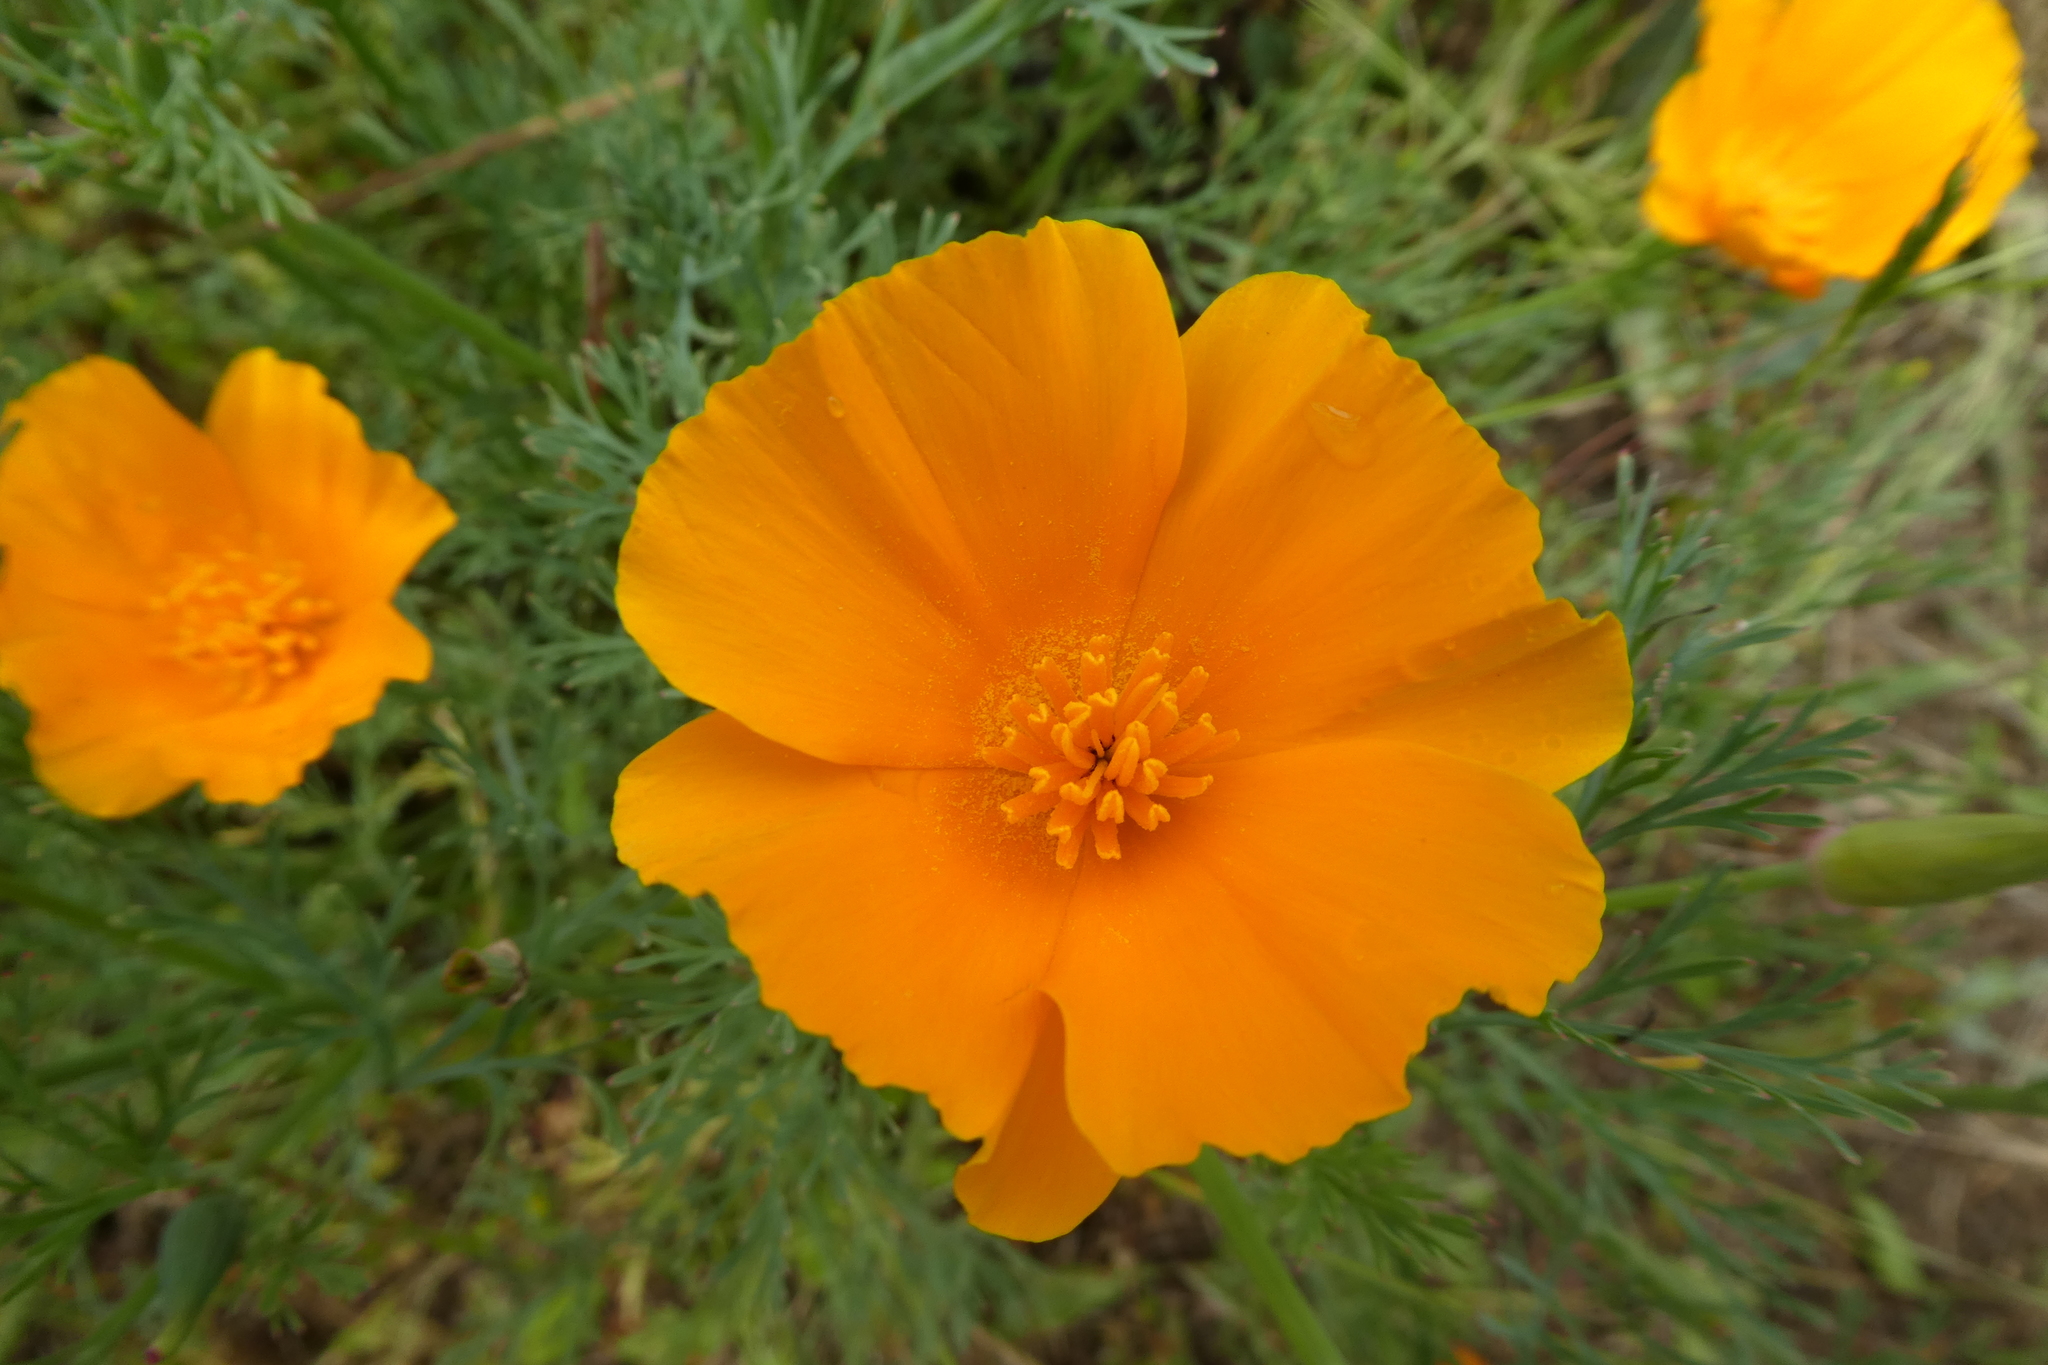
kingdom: Plantae
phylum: Tracheophyta
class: Magnoliopsida
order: Ranunculales
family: Papaveraceae
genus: Eschscholzia
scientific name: Eschscholzia californica
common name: California poppy
